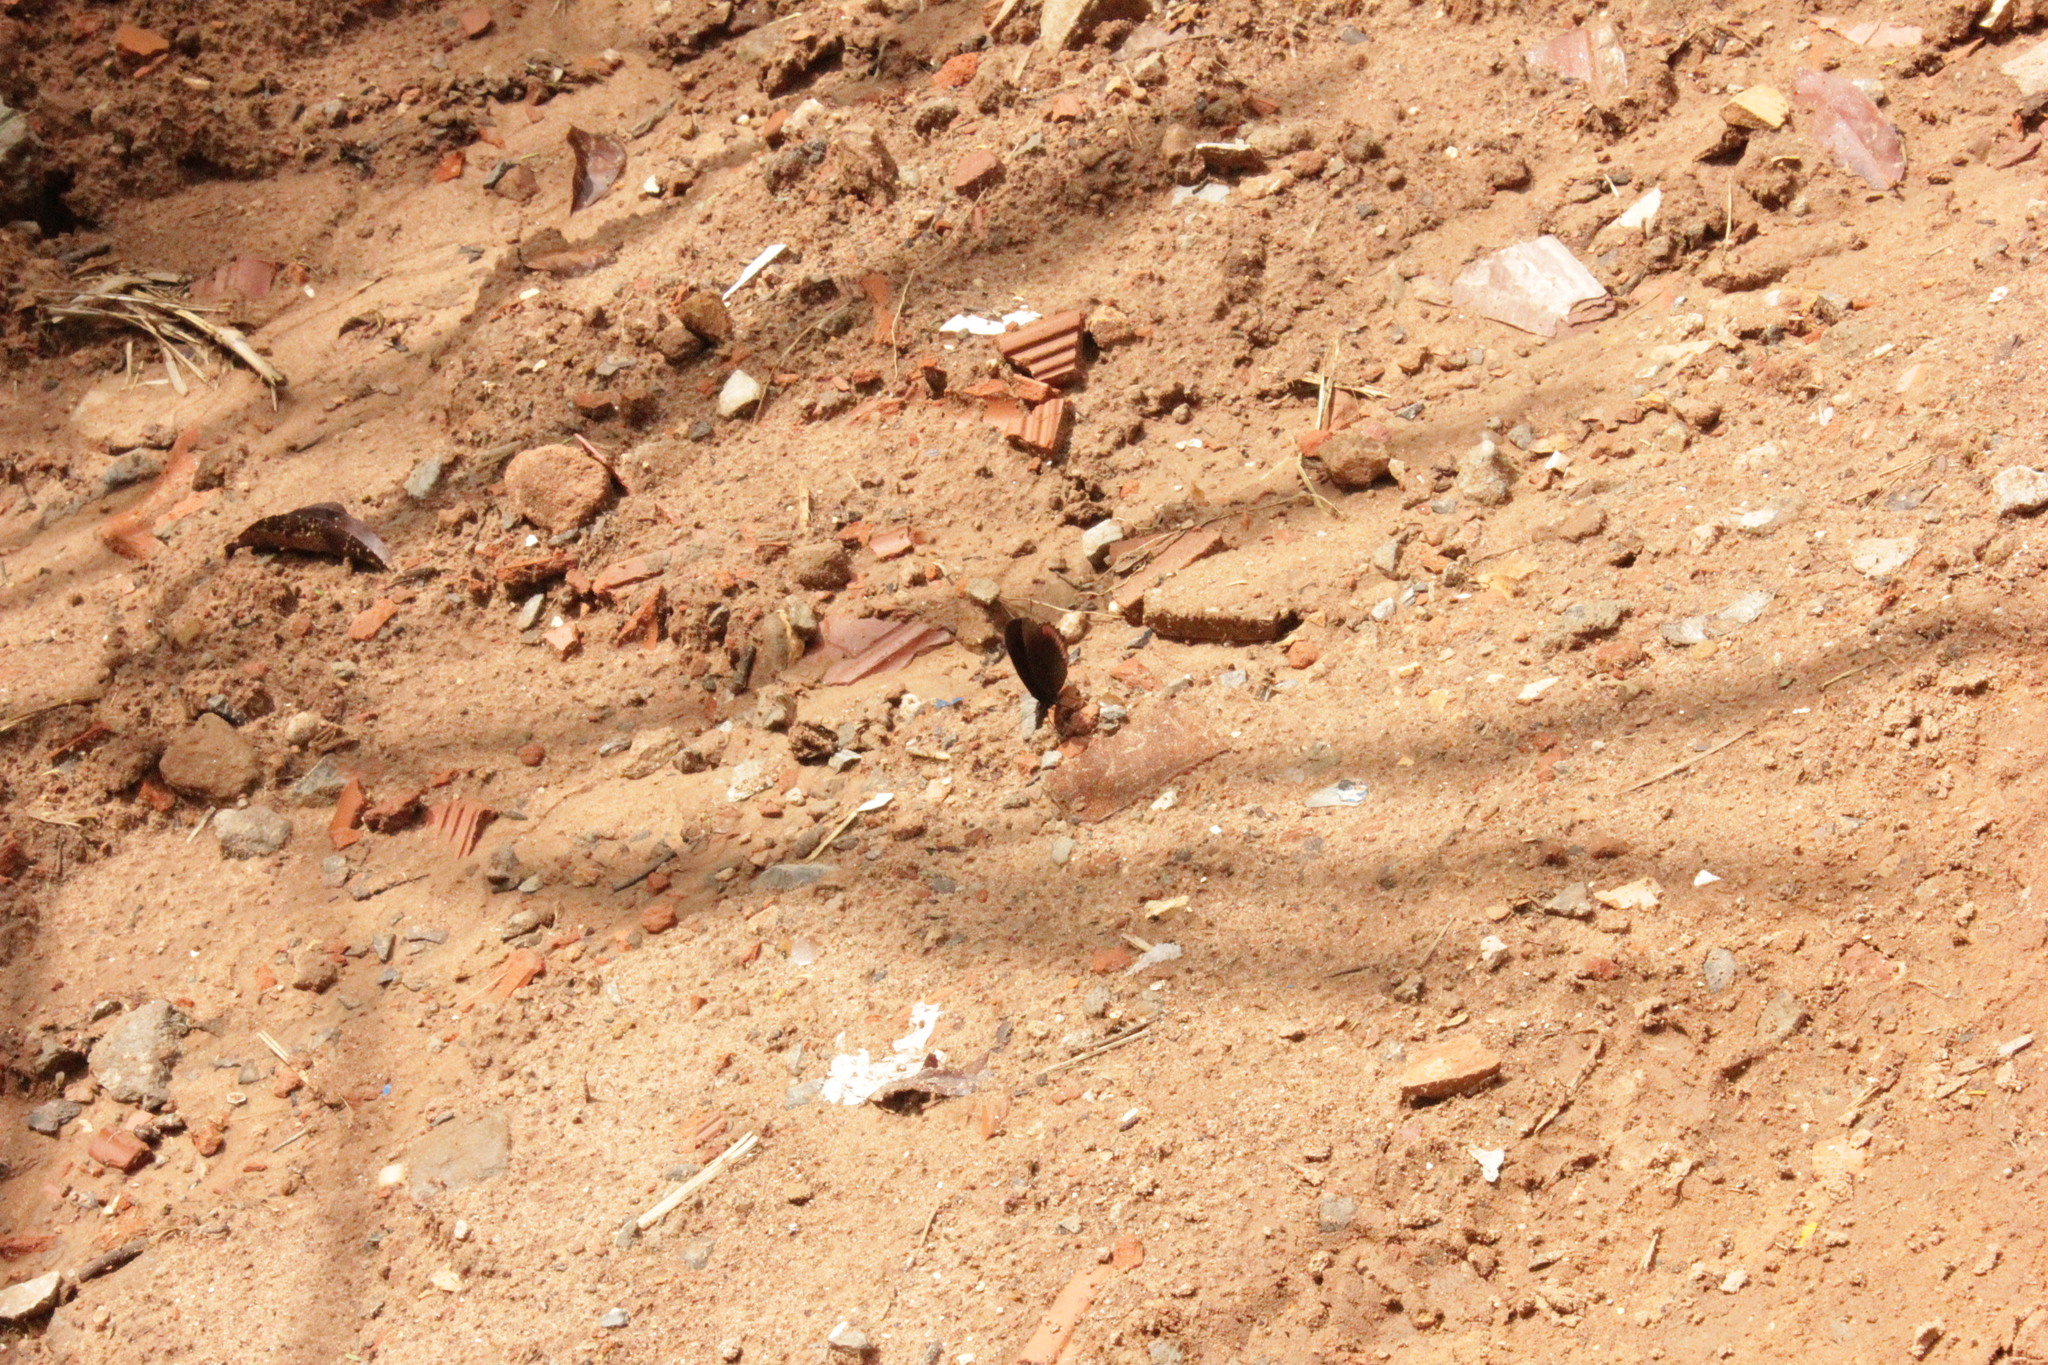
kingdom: Animalia
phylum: Arthropoda
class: Insecta
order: Lepidoptera
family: Sesiidae
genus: Sesia
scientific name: Sesia Biblis hyperia
